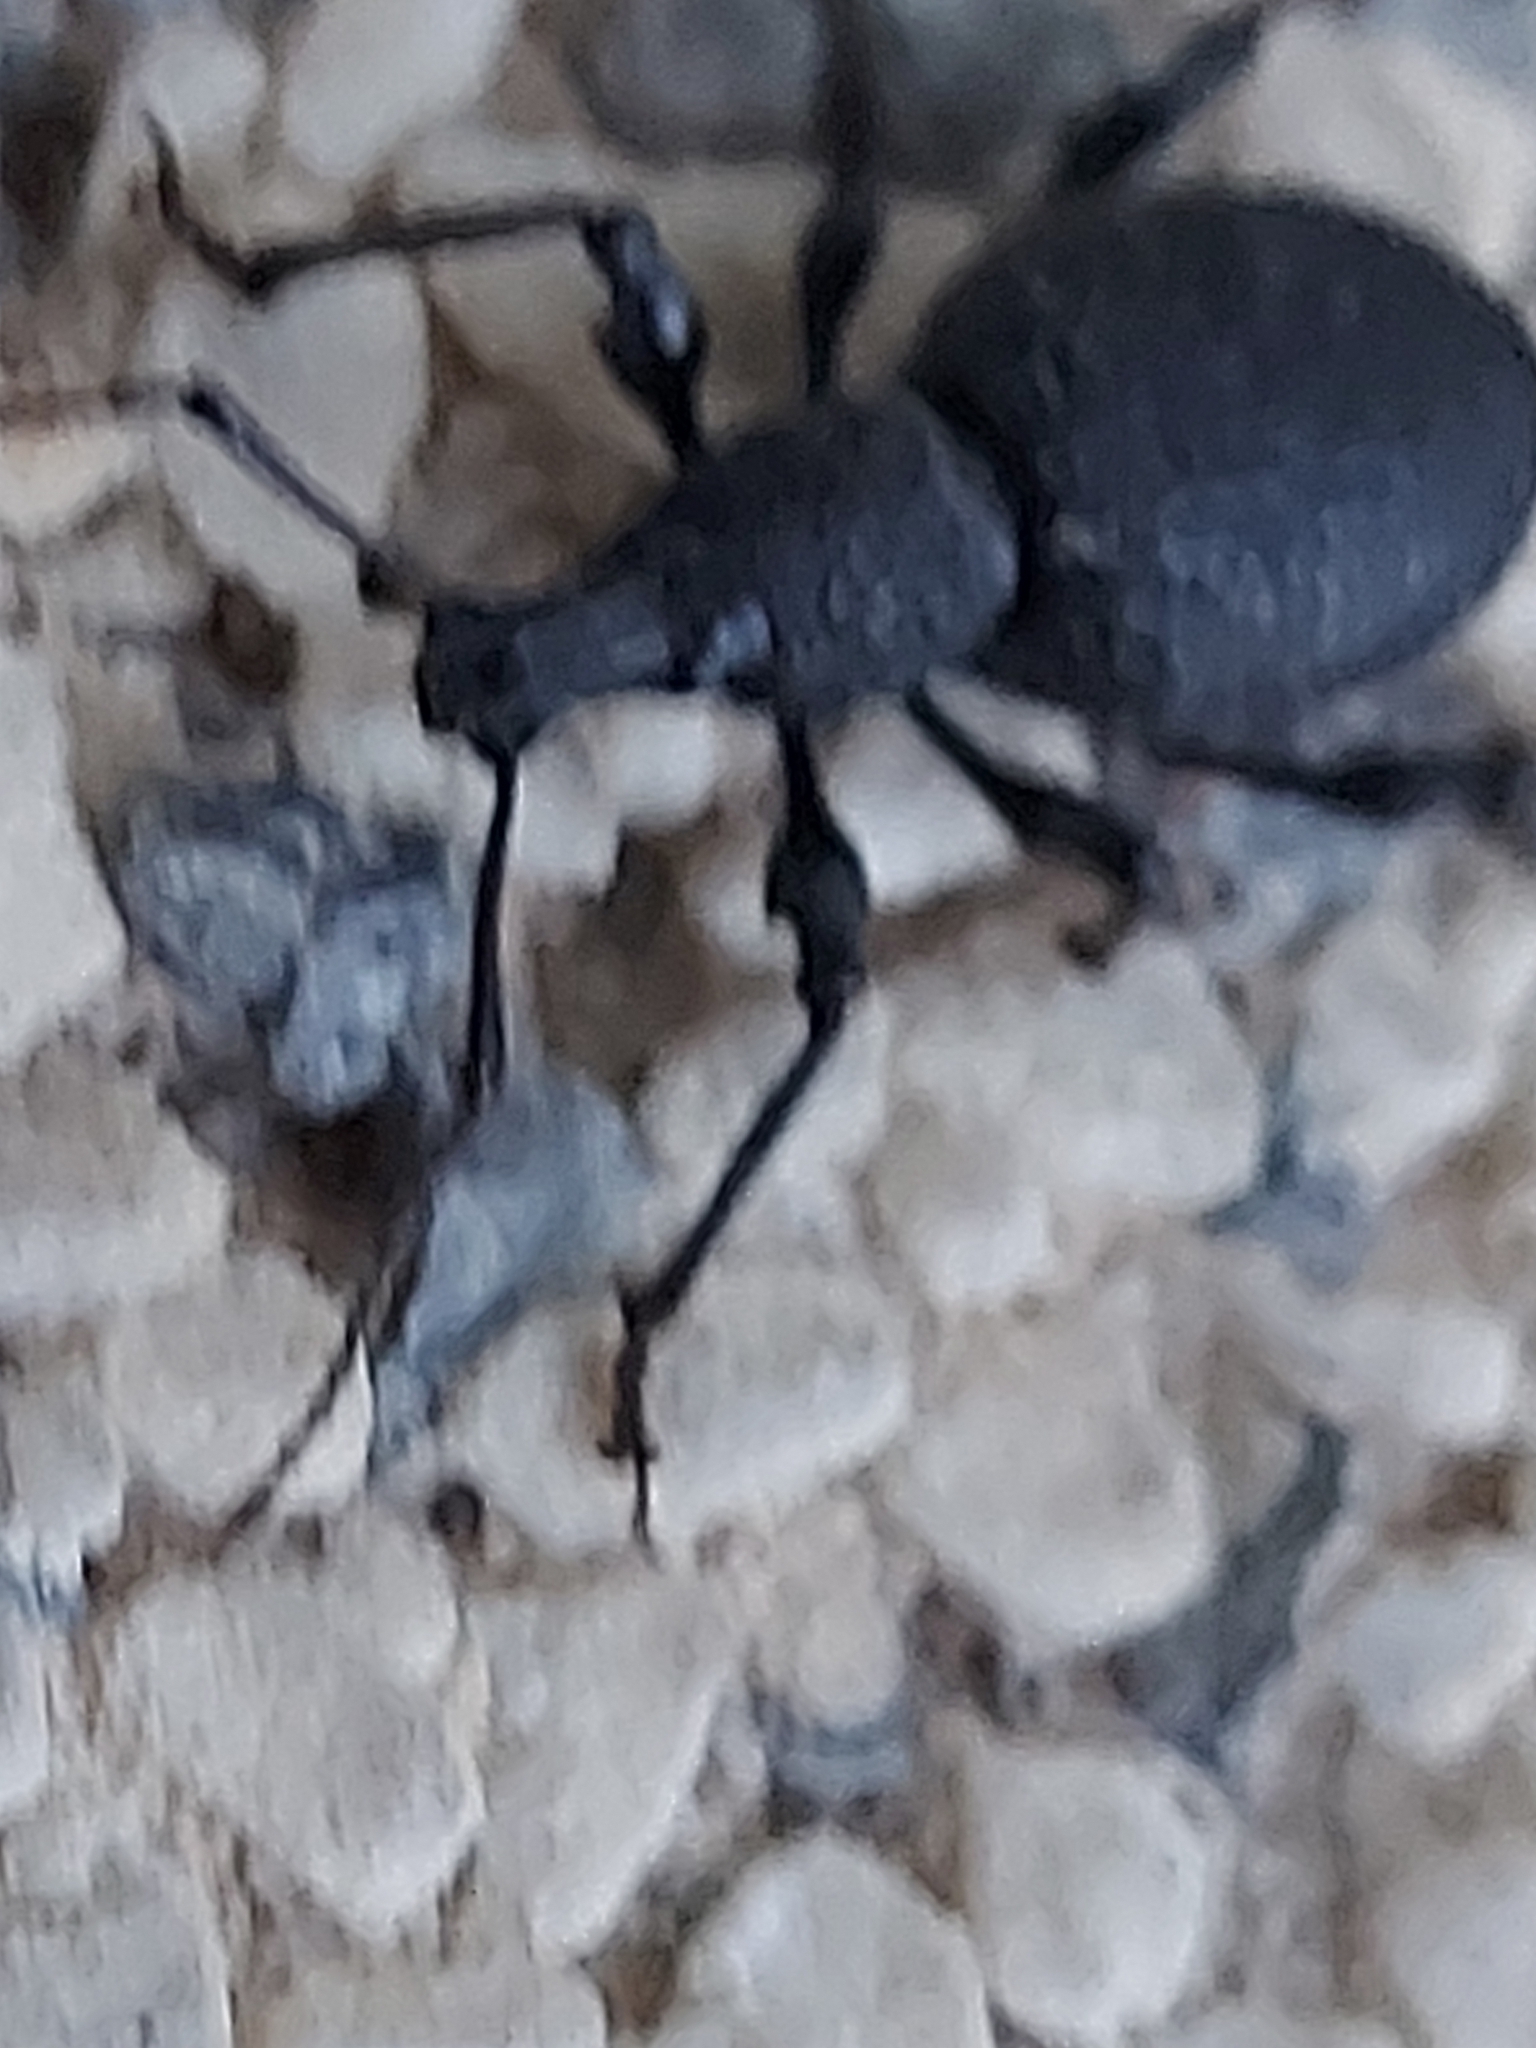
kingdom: Animalia
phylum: Arthropoda
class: Insecta
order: Coleoptera
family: Curculionidae
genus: Otiorhynchus
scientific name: Otiorhynchus armatus
